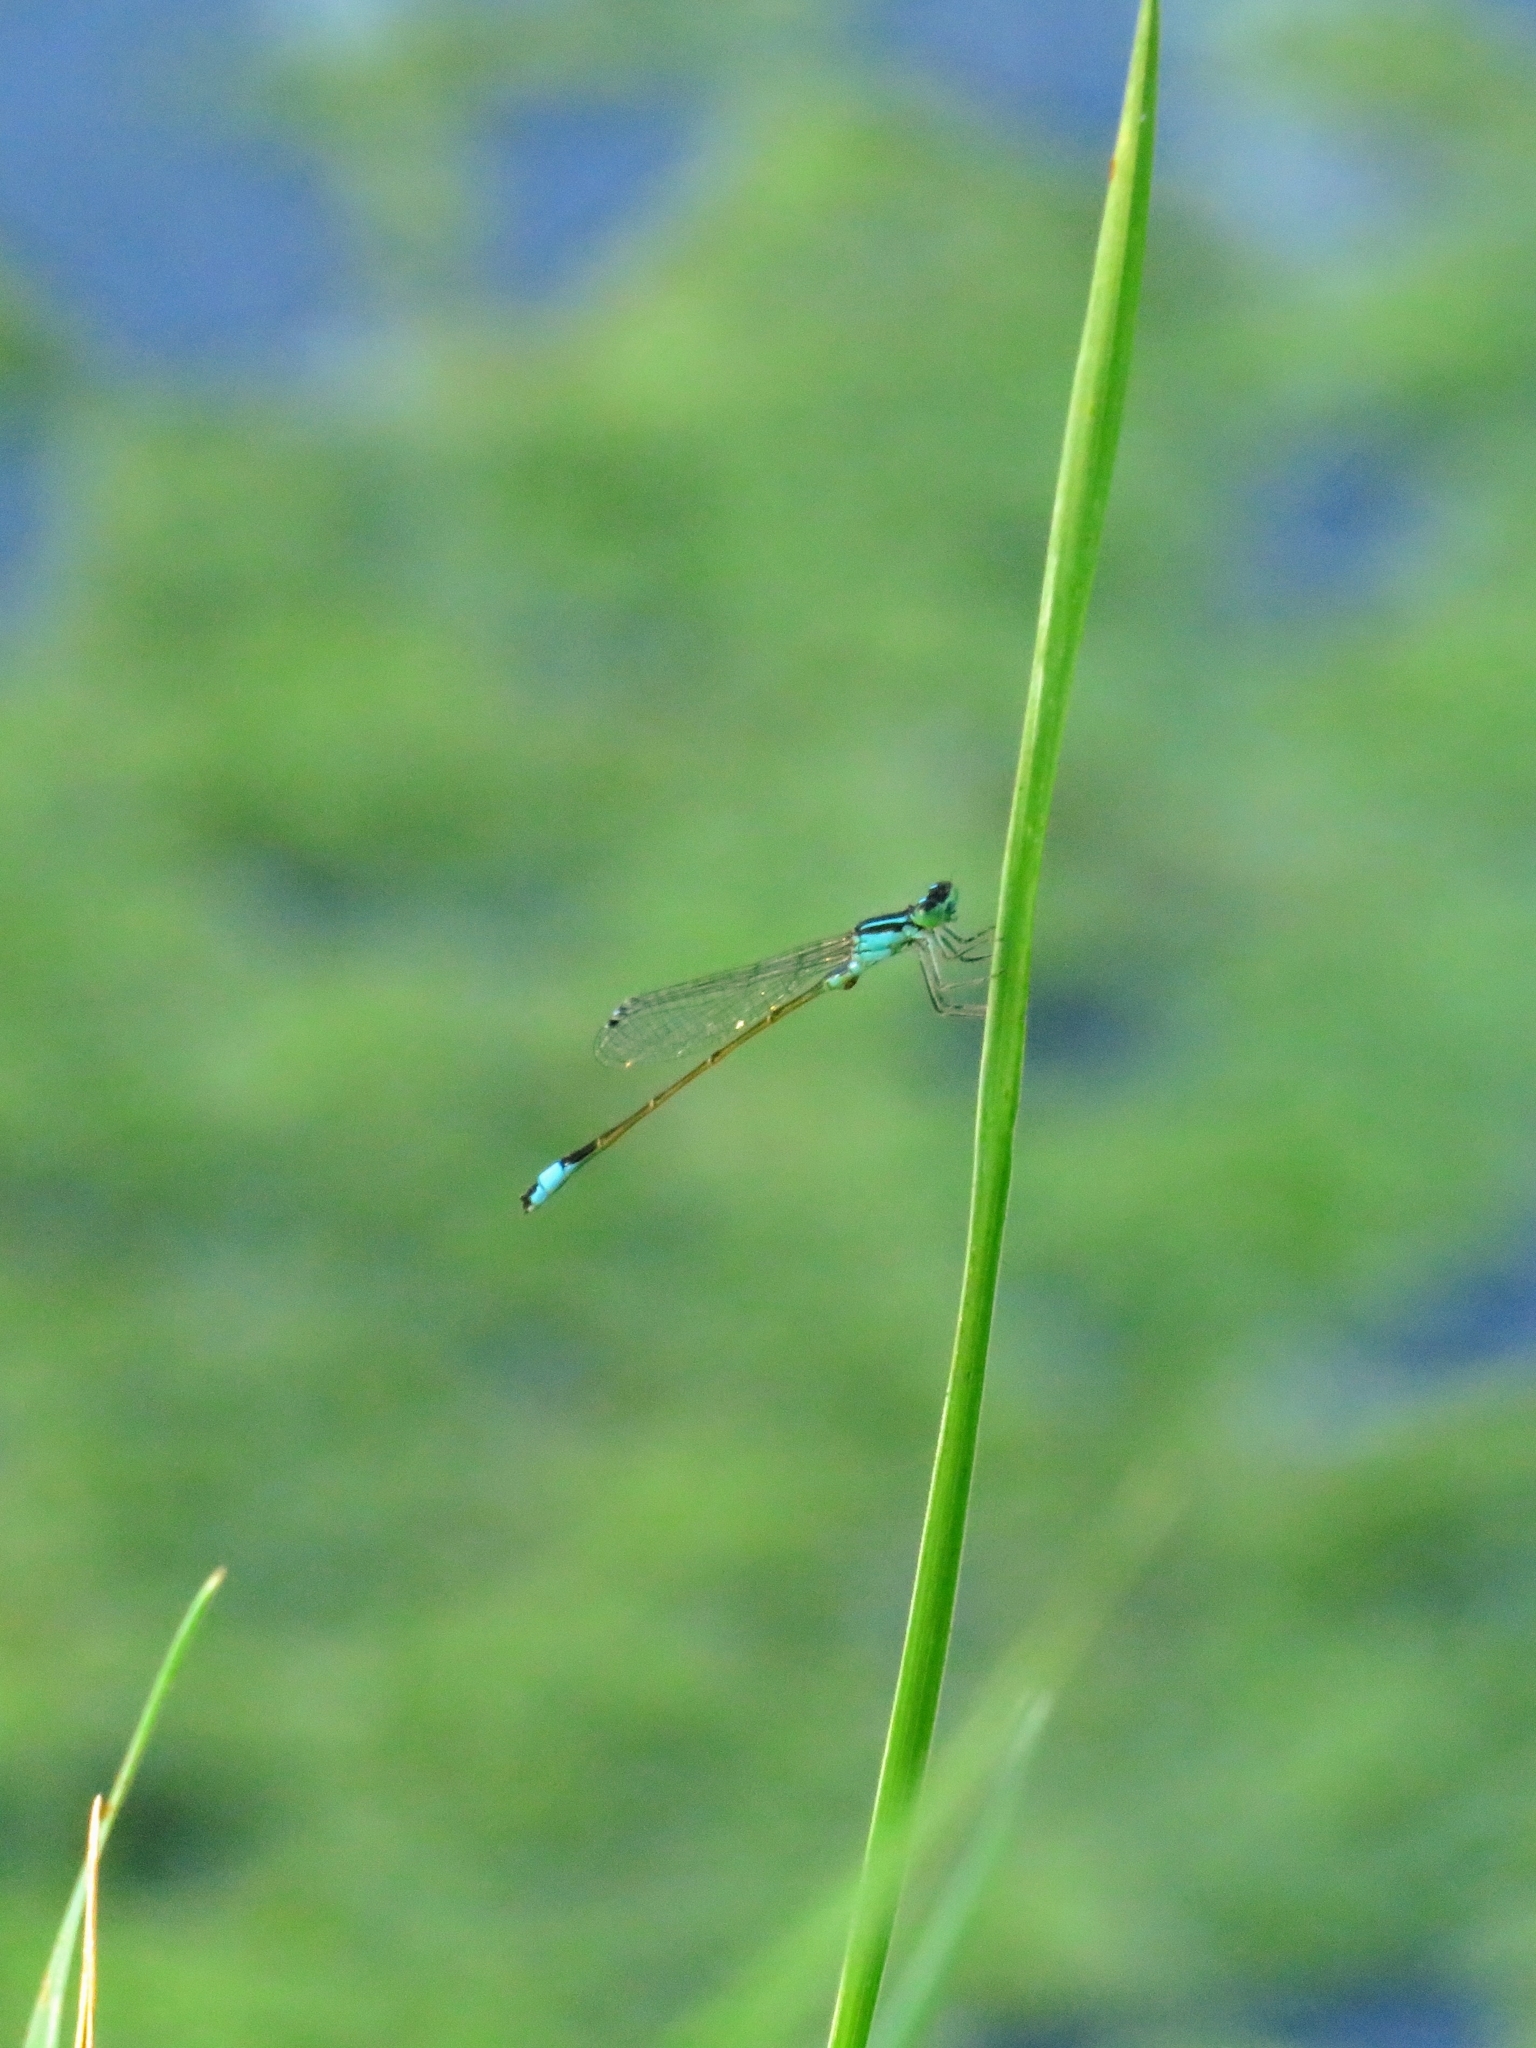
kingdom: Animalia
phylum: Arthropoda
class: Insecta
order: Odonata
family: Coenagrionidae
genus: Ischnura
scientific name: Ischnura elegans
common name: Blue-tailed damselfly
